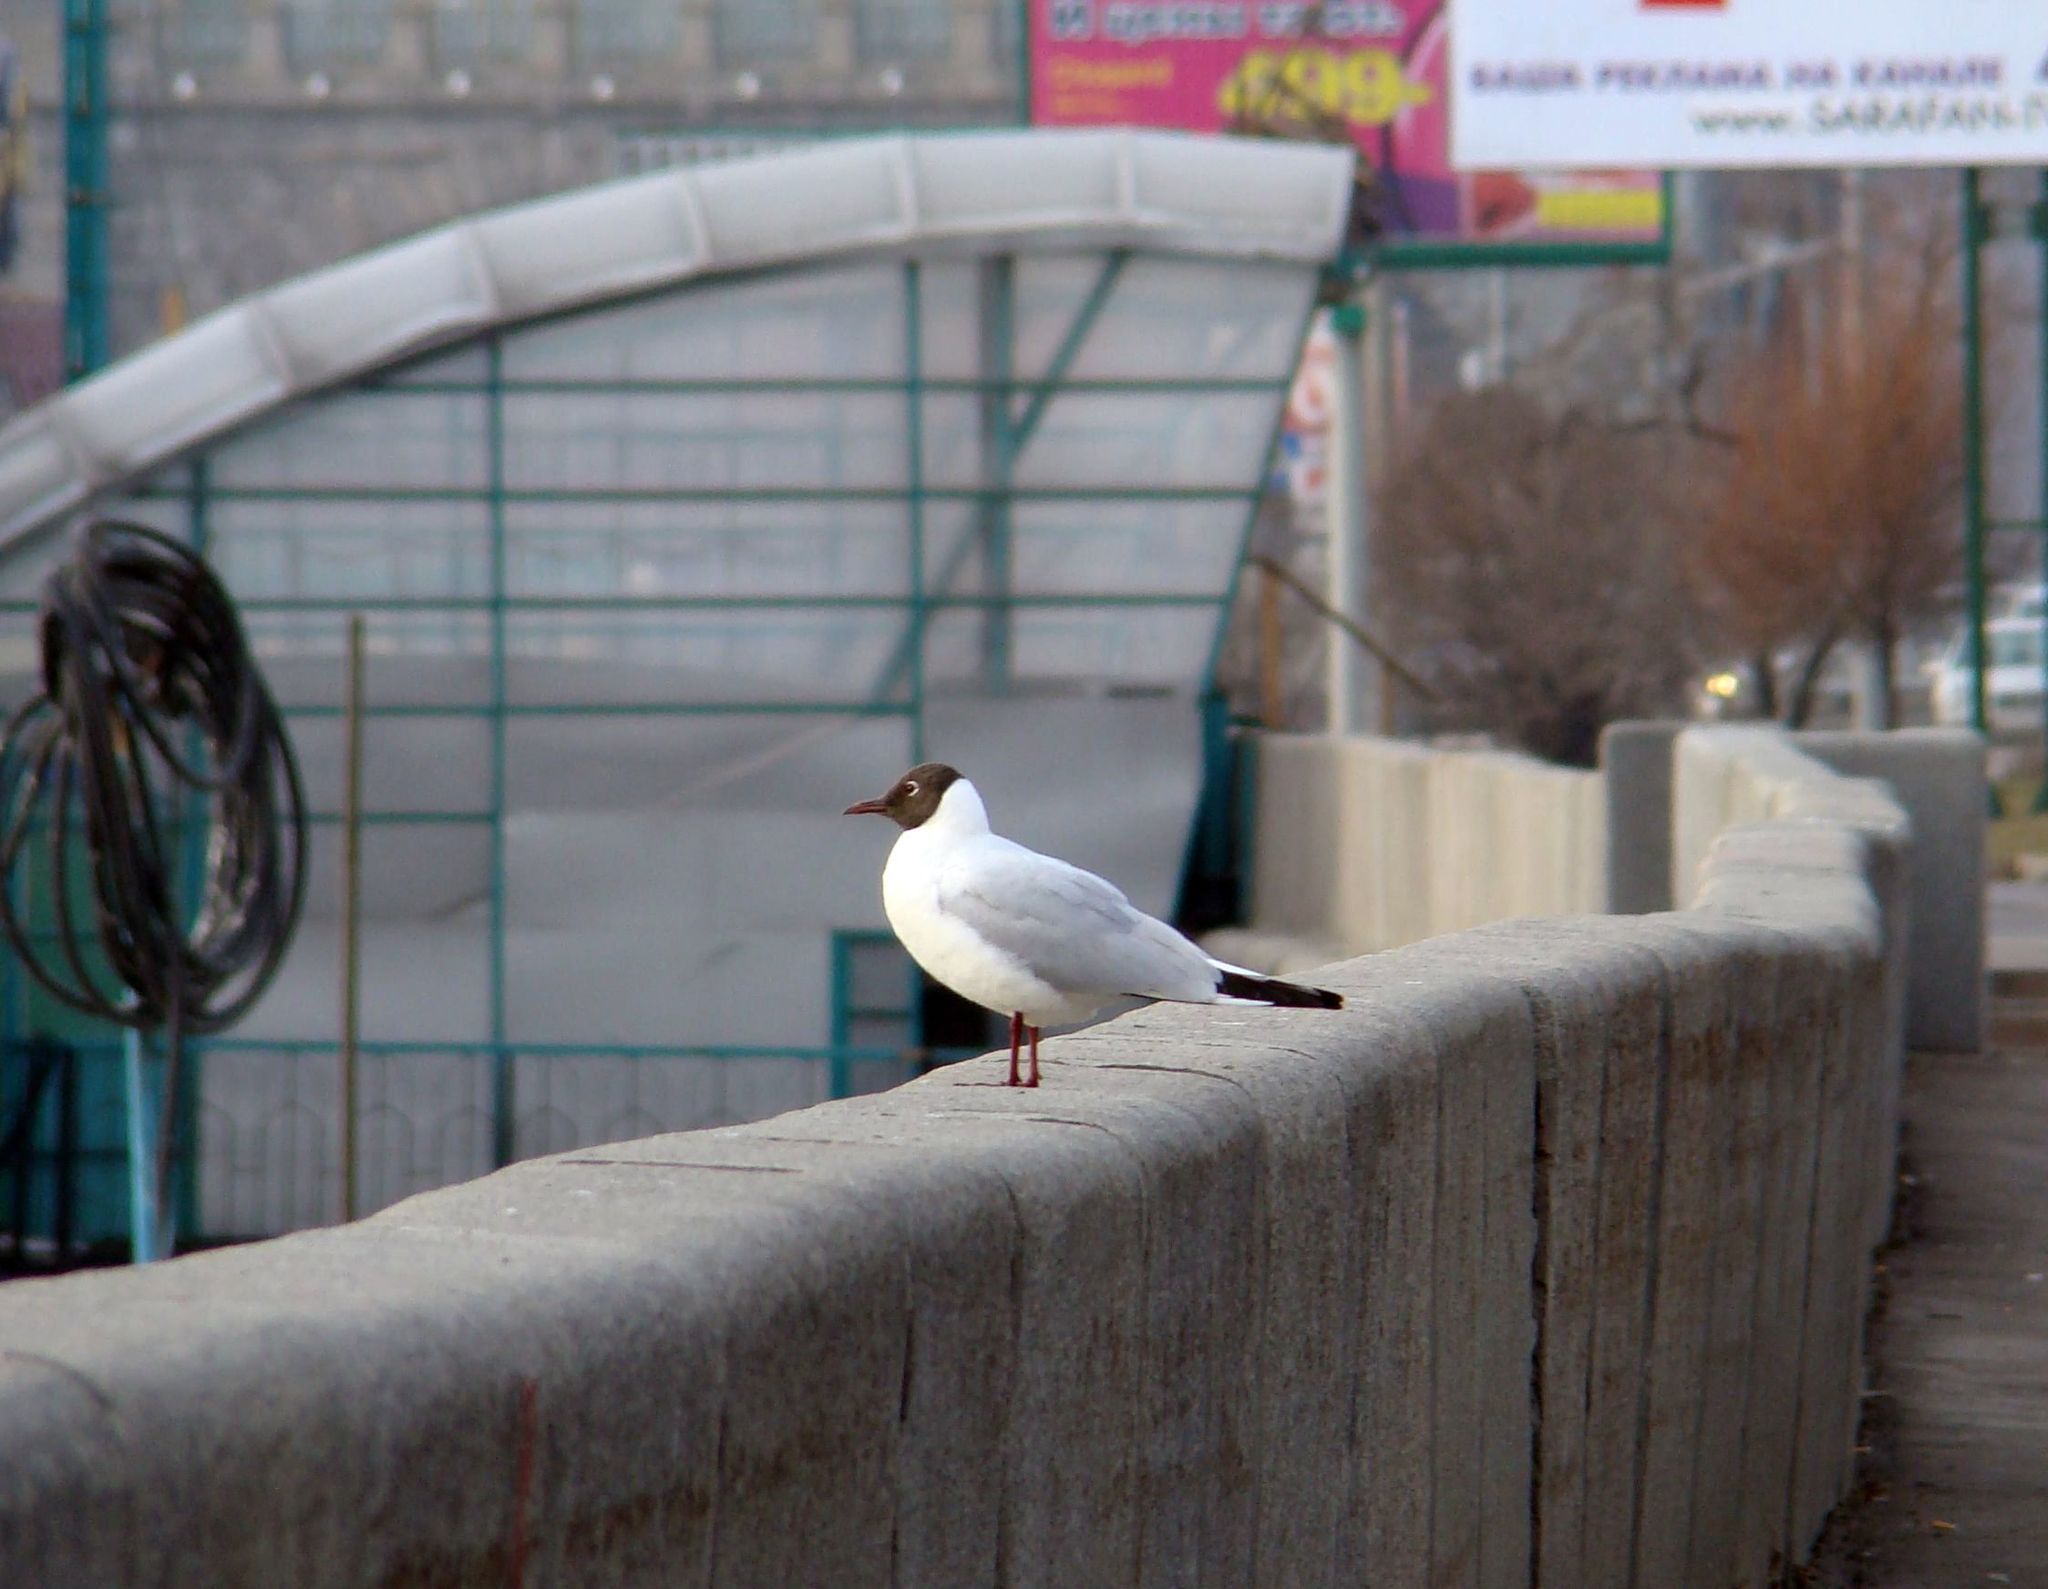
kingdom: Animalia
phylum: Chordata
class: Aves
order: Charadriiformes
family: Laridae
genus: Chroicocephalus
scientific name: Chroicocephalus ridibundus
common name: Black-headed gull
